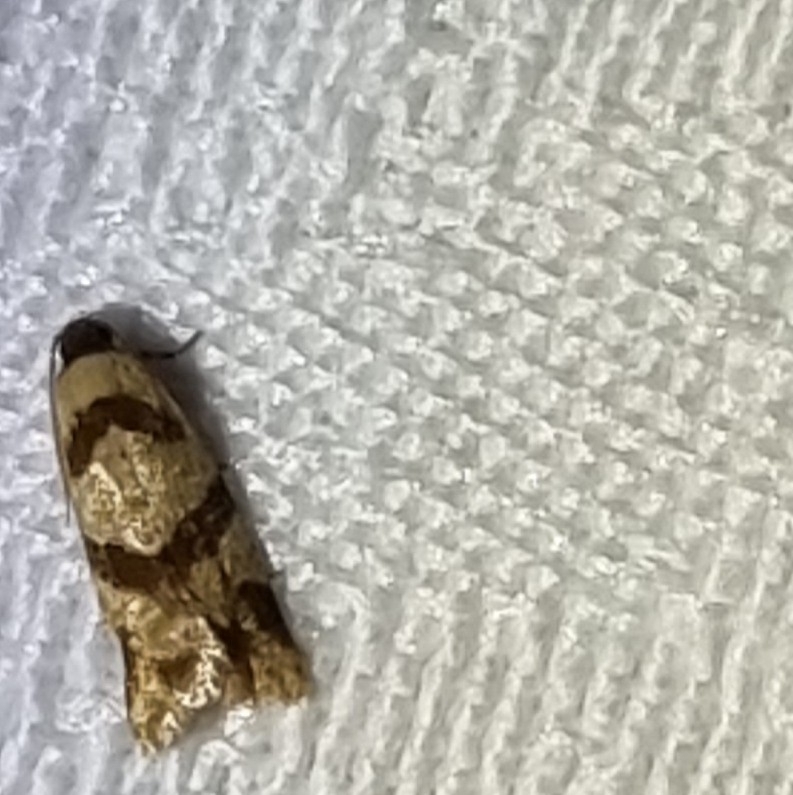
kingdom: Animalia
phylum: Arthropoda
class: Insecta
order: Lepidoptera
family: Tortricidae
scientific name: Tortricidae
